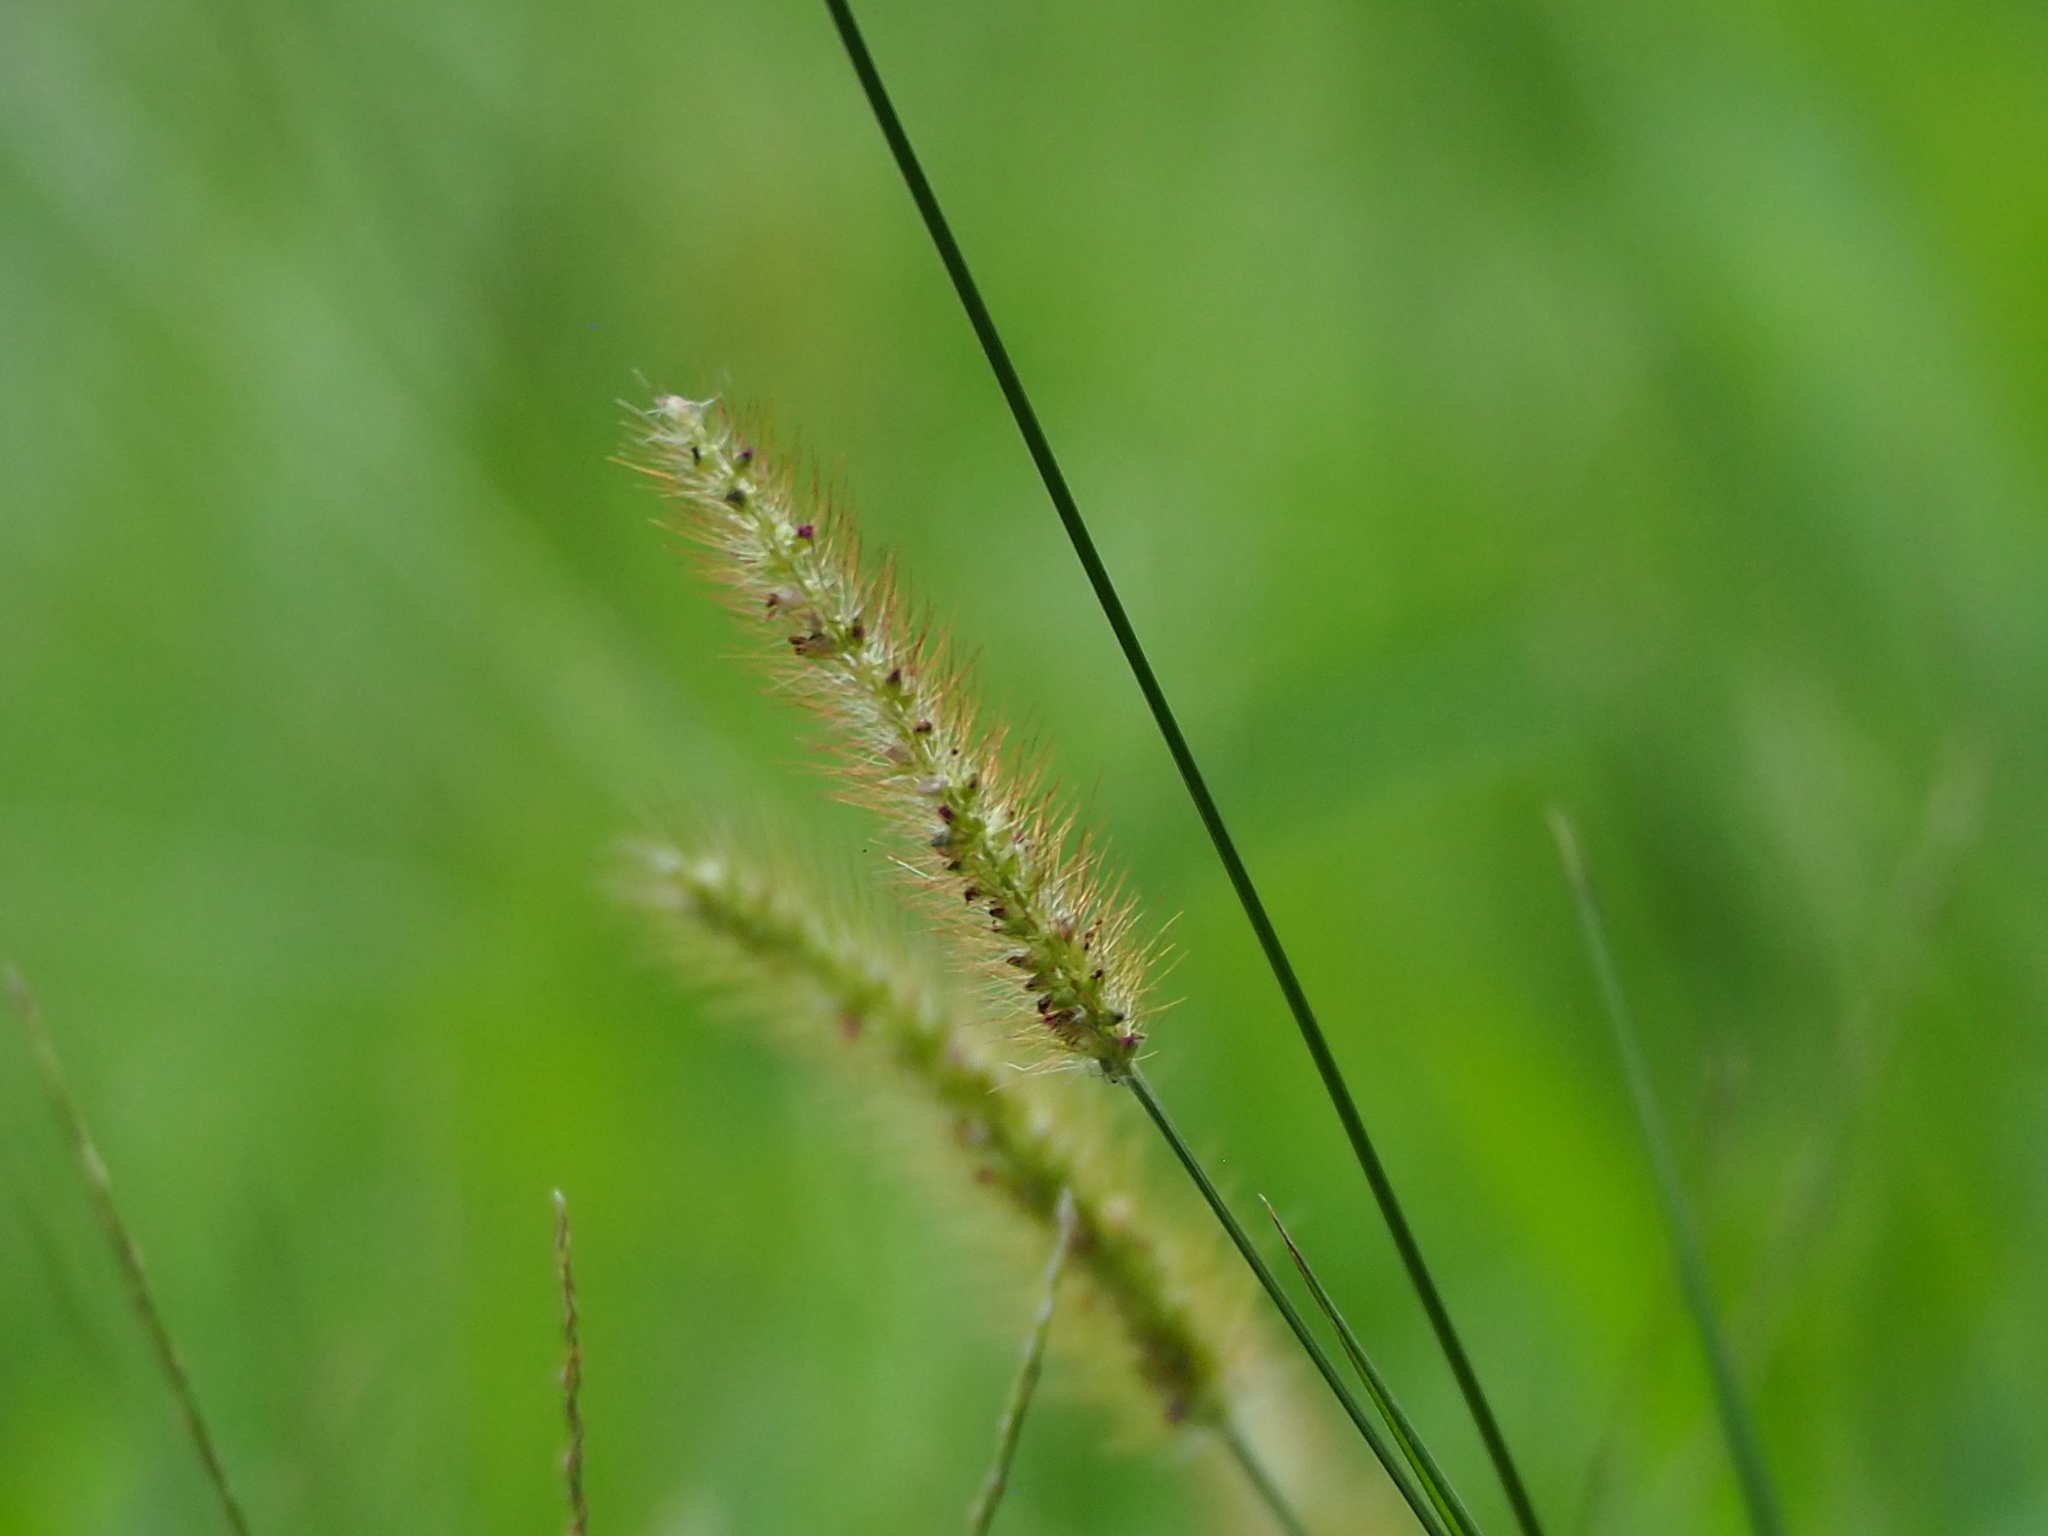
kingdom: Plantae
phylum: Tracheophyta
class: Liliopsida
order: Poales
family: Poaceae
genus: Setaria
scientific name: Setaria parviflora
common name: Knotroot bristle-grass
